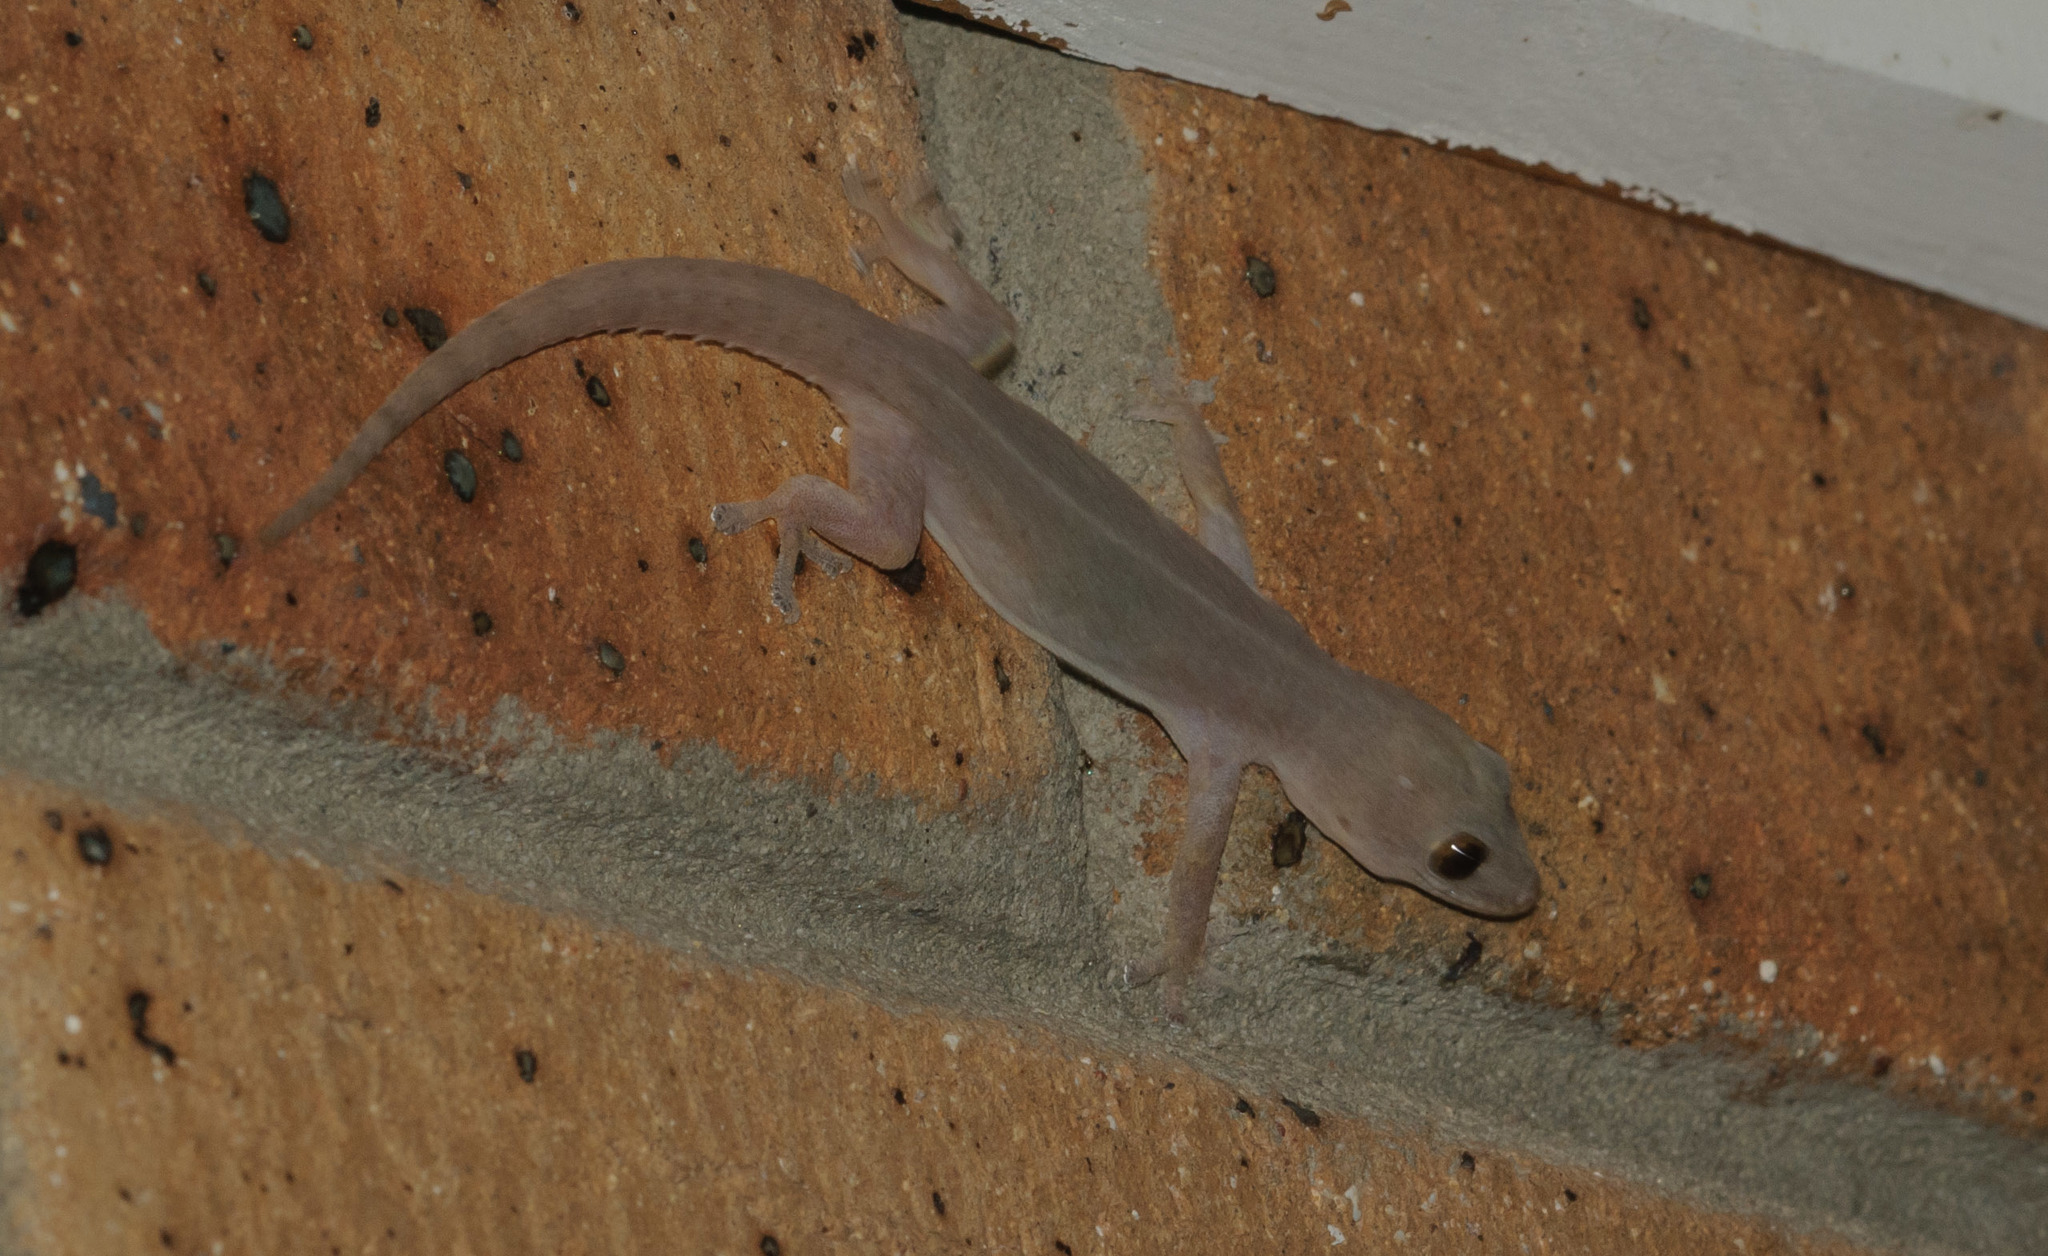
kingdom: Animalia
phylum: Chordata
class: Squamata
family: Gekkonidae
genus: Hemidactylus
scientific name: Hemidactylus frenatus
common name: Common house gecko
